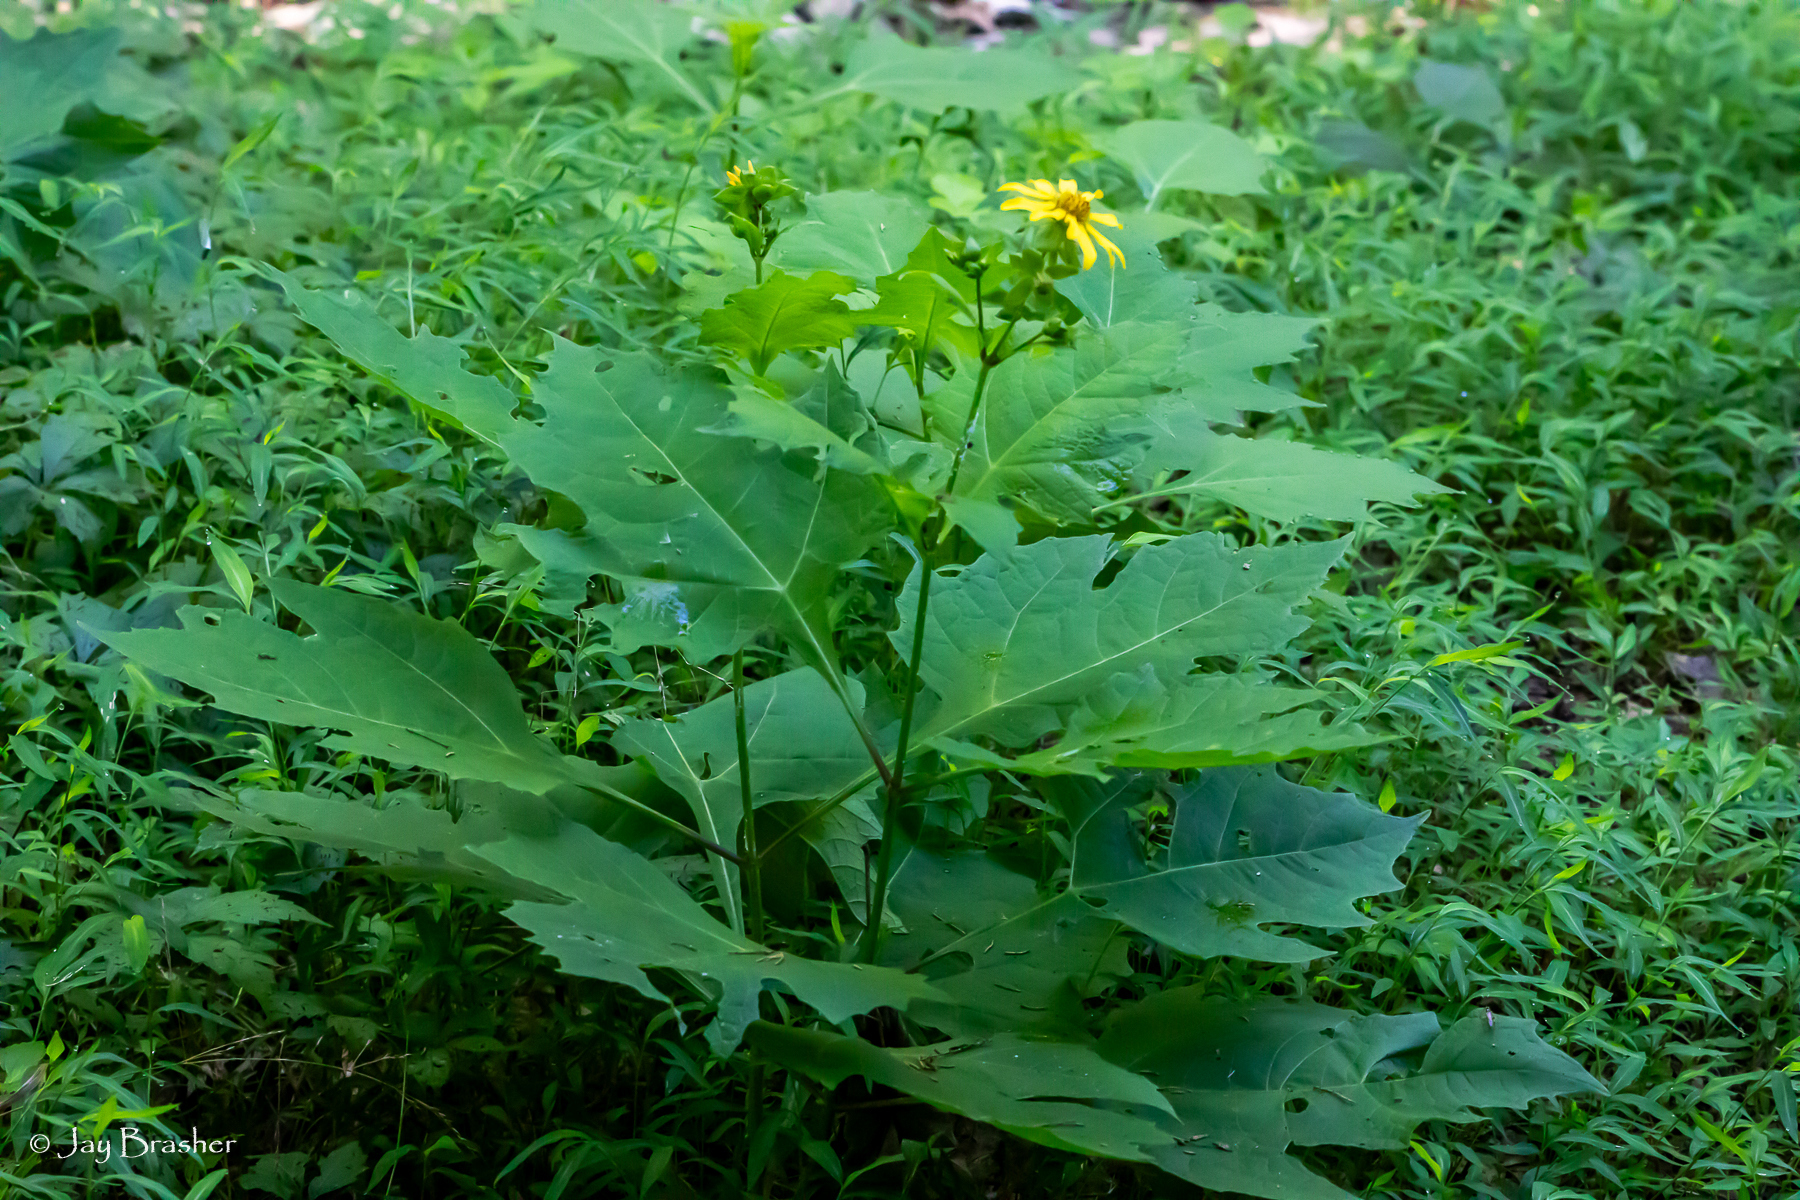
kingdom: Plantae
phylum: Tracheophyta
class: Magnoliopsida
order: Asterales
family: Asteraceae
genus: Smallanthus
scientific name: Smallanthus uvedalia
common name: Bear's-foot
